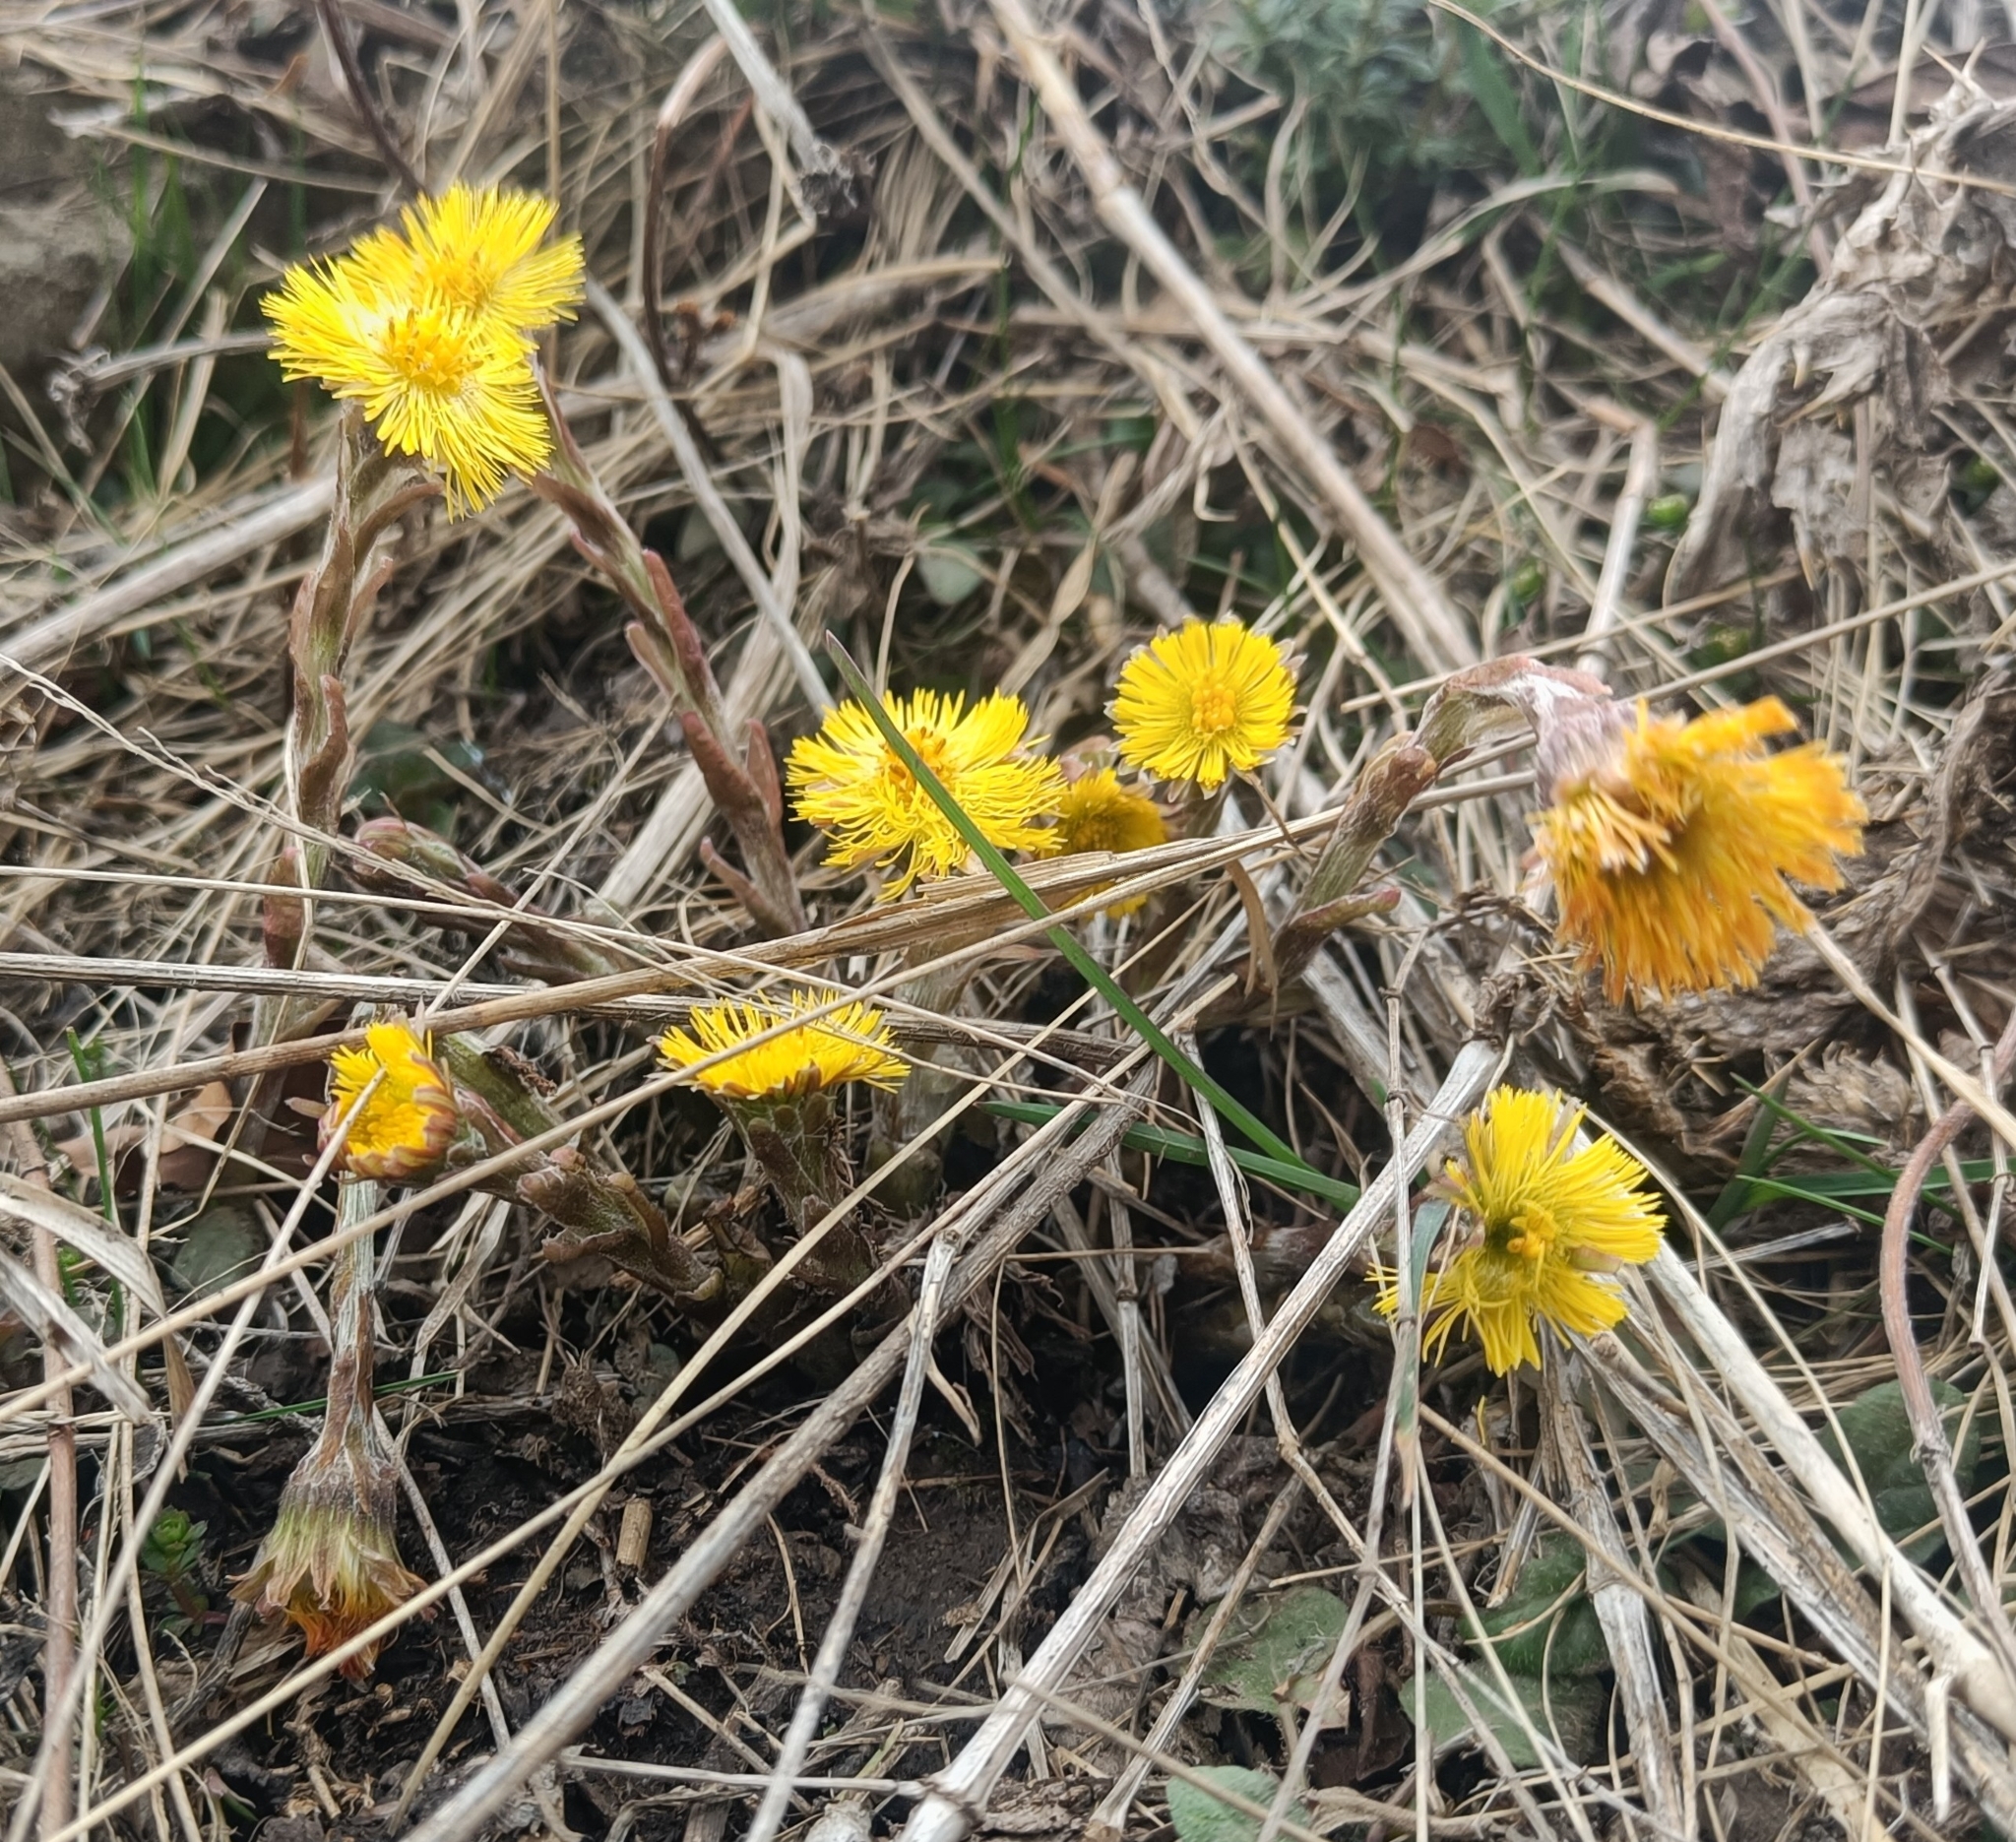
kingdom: Plantae
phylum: Tracheophyta
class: Magnoliopsida
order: Asterales
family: Asteraceae
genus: Tussilago
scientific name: Tussilago farfara
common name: Coltsfoot
